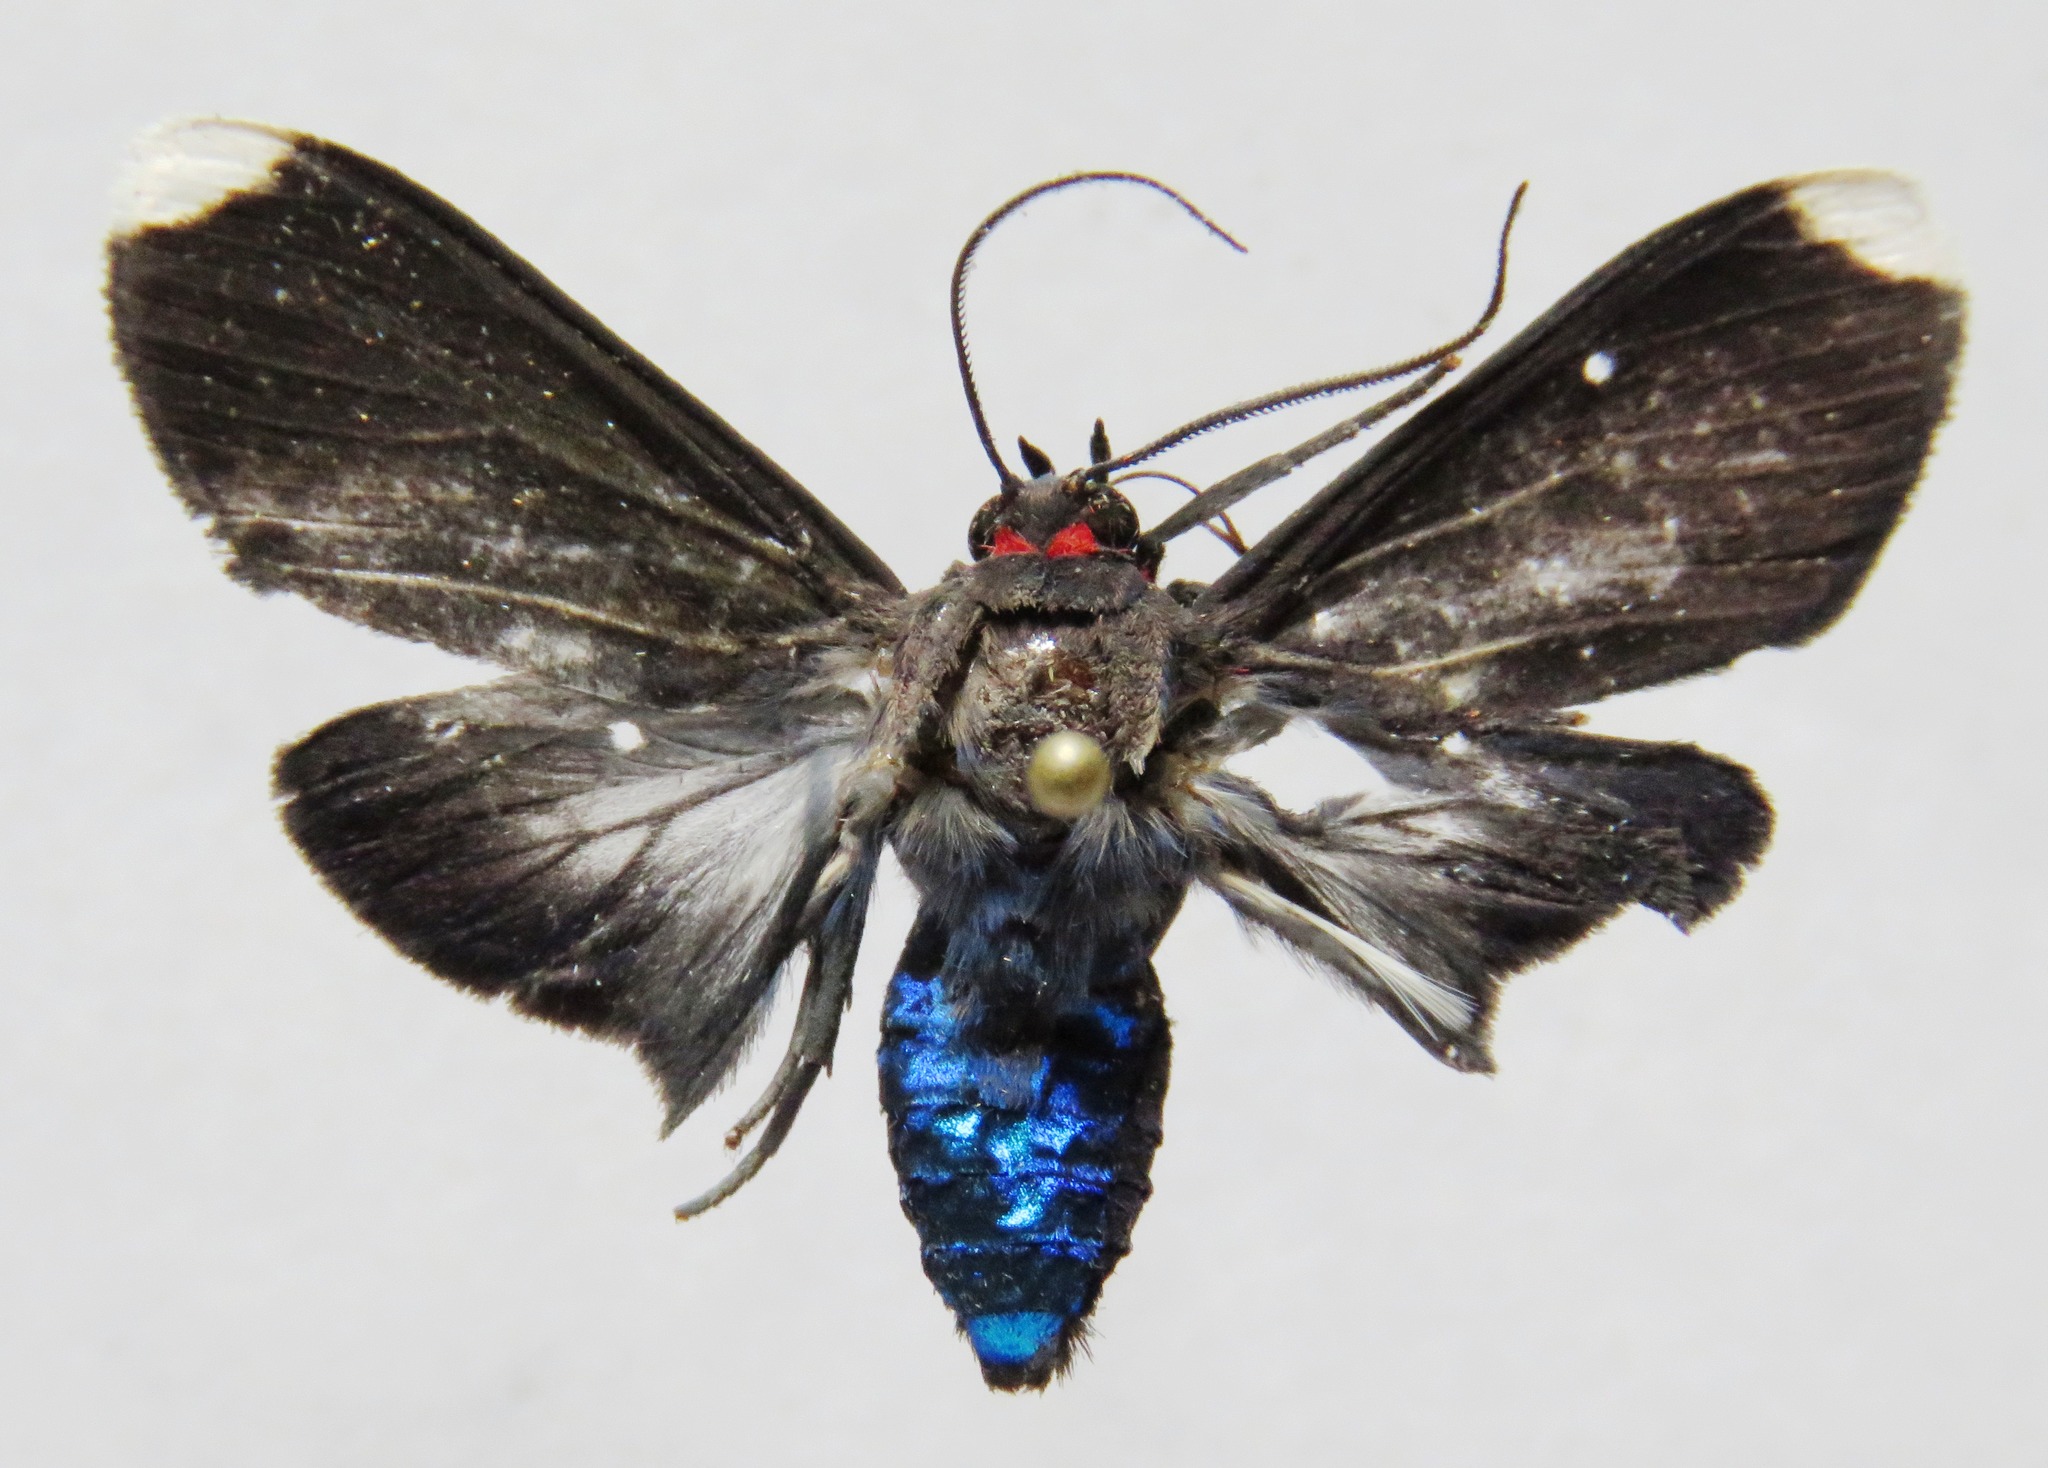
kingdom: Animalia
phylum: Arthropoda
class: Insecta
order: Lepidoptera
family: Erebidae
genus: Episcepsis
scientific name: Episcepsis leneus
